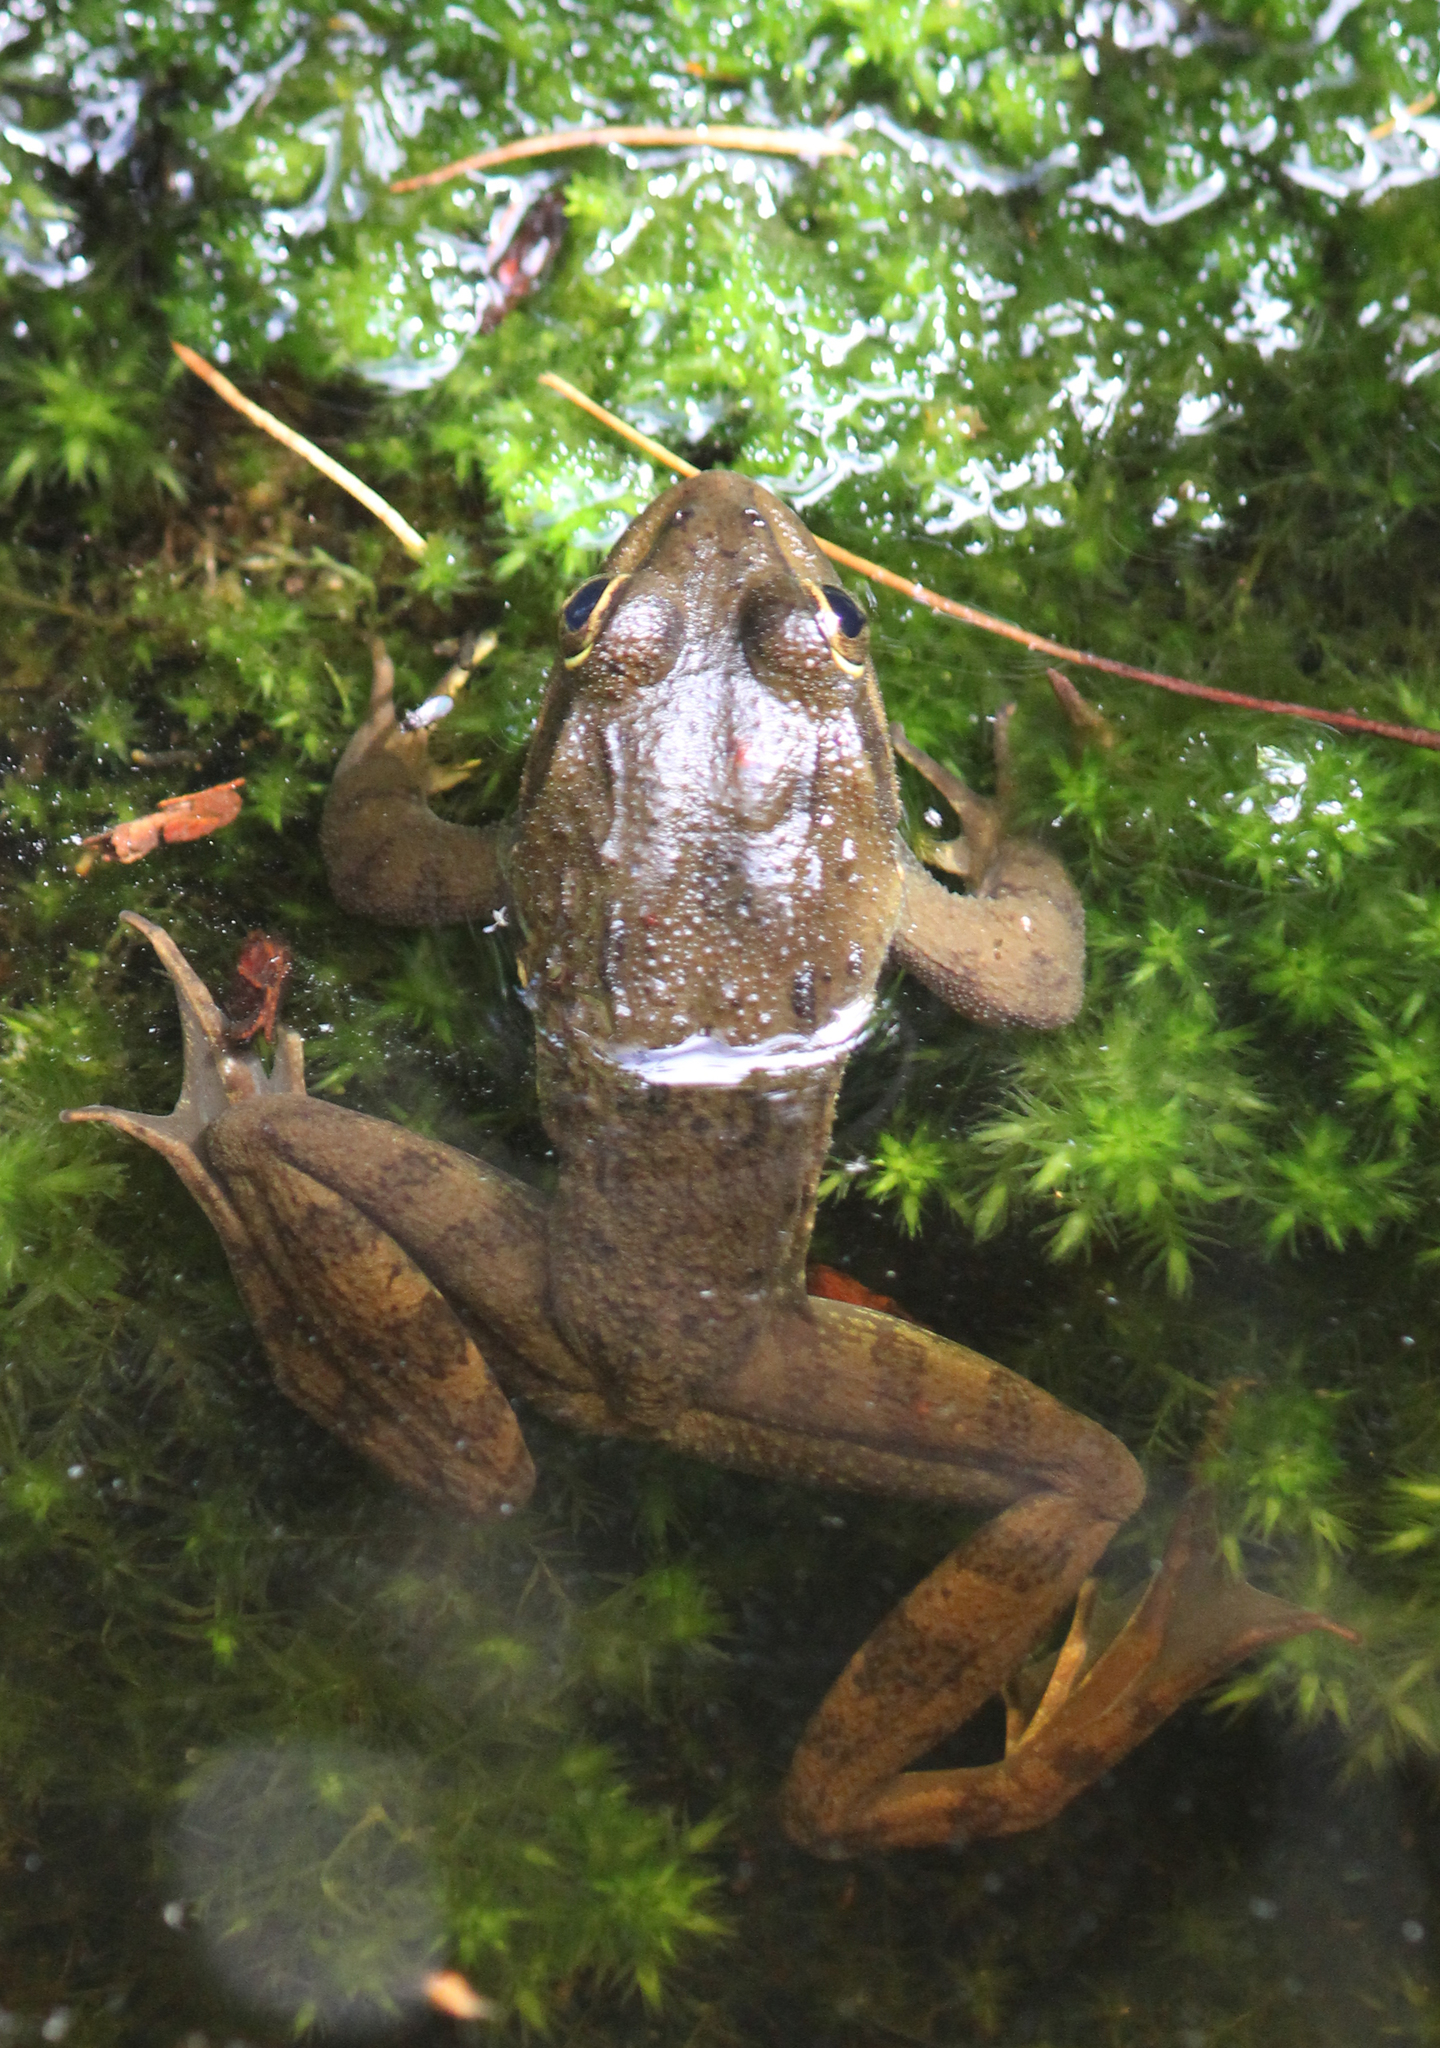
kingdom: Animalia
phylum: Chordata
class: Amphibia
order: Anura
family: Pyxicephalidae
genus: Amietia
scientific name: Amietia fuscigula
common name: Cape rana
